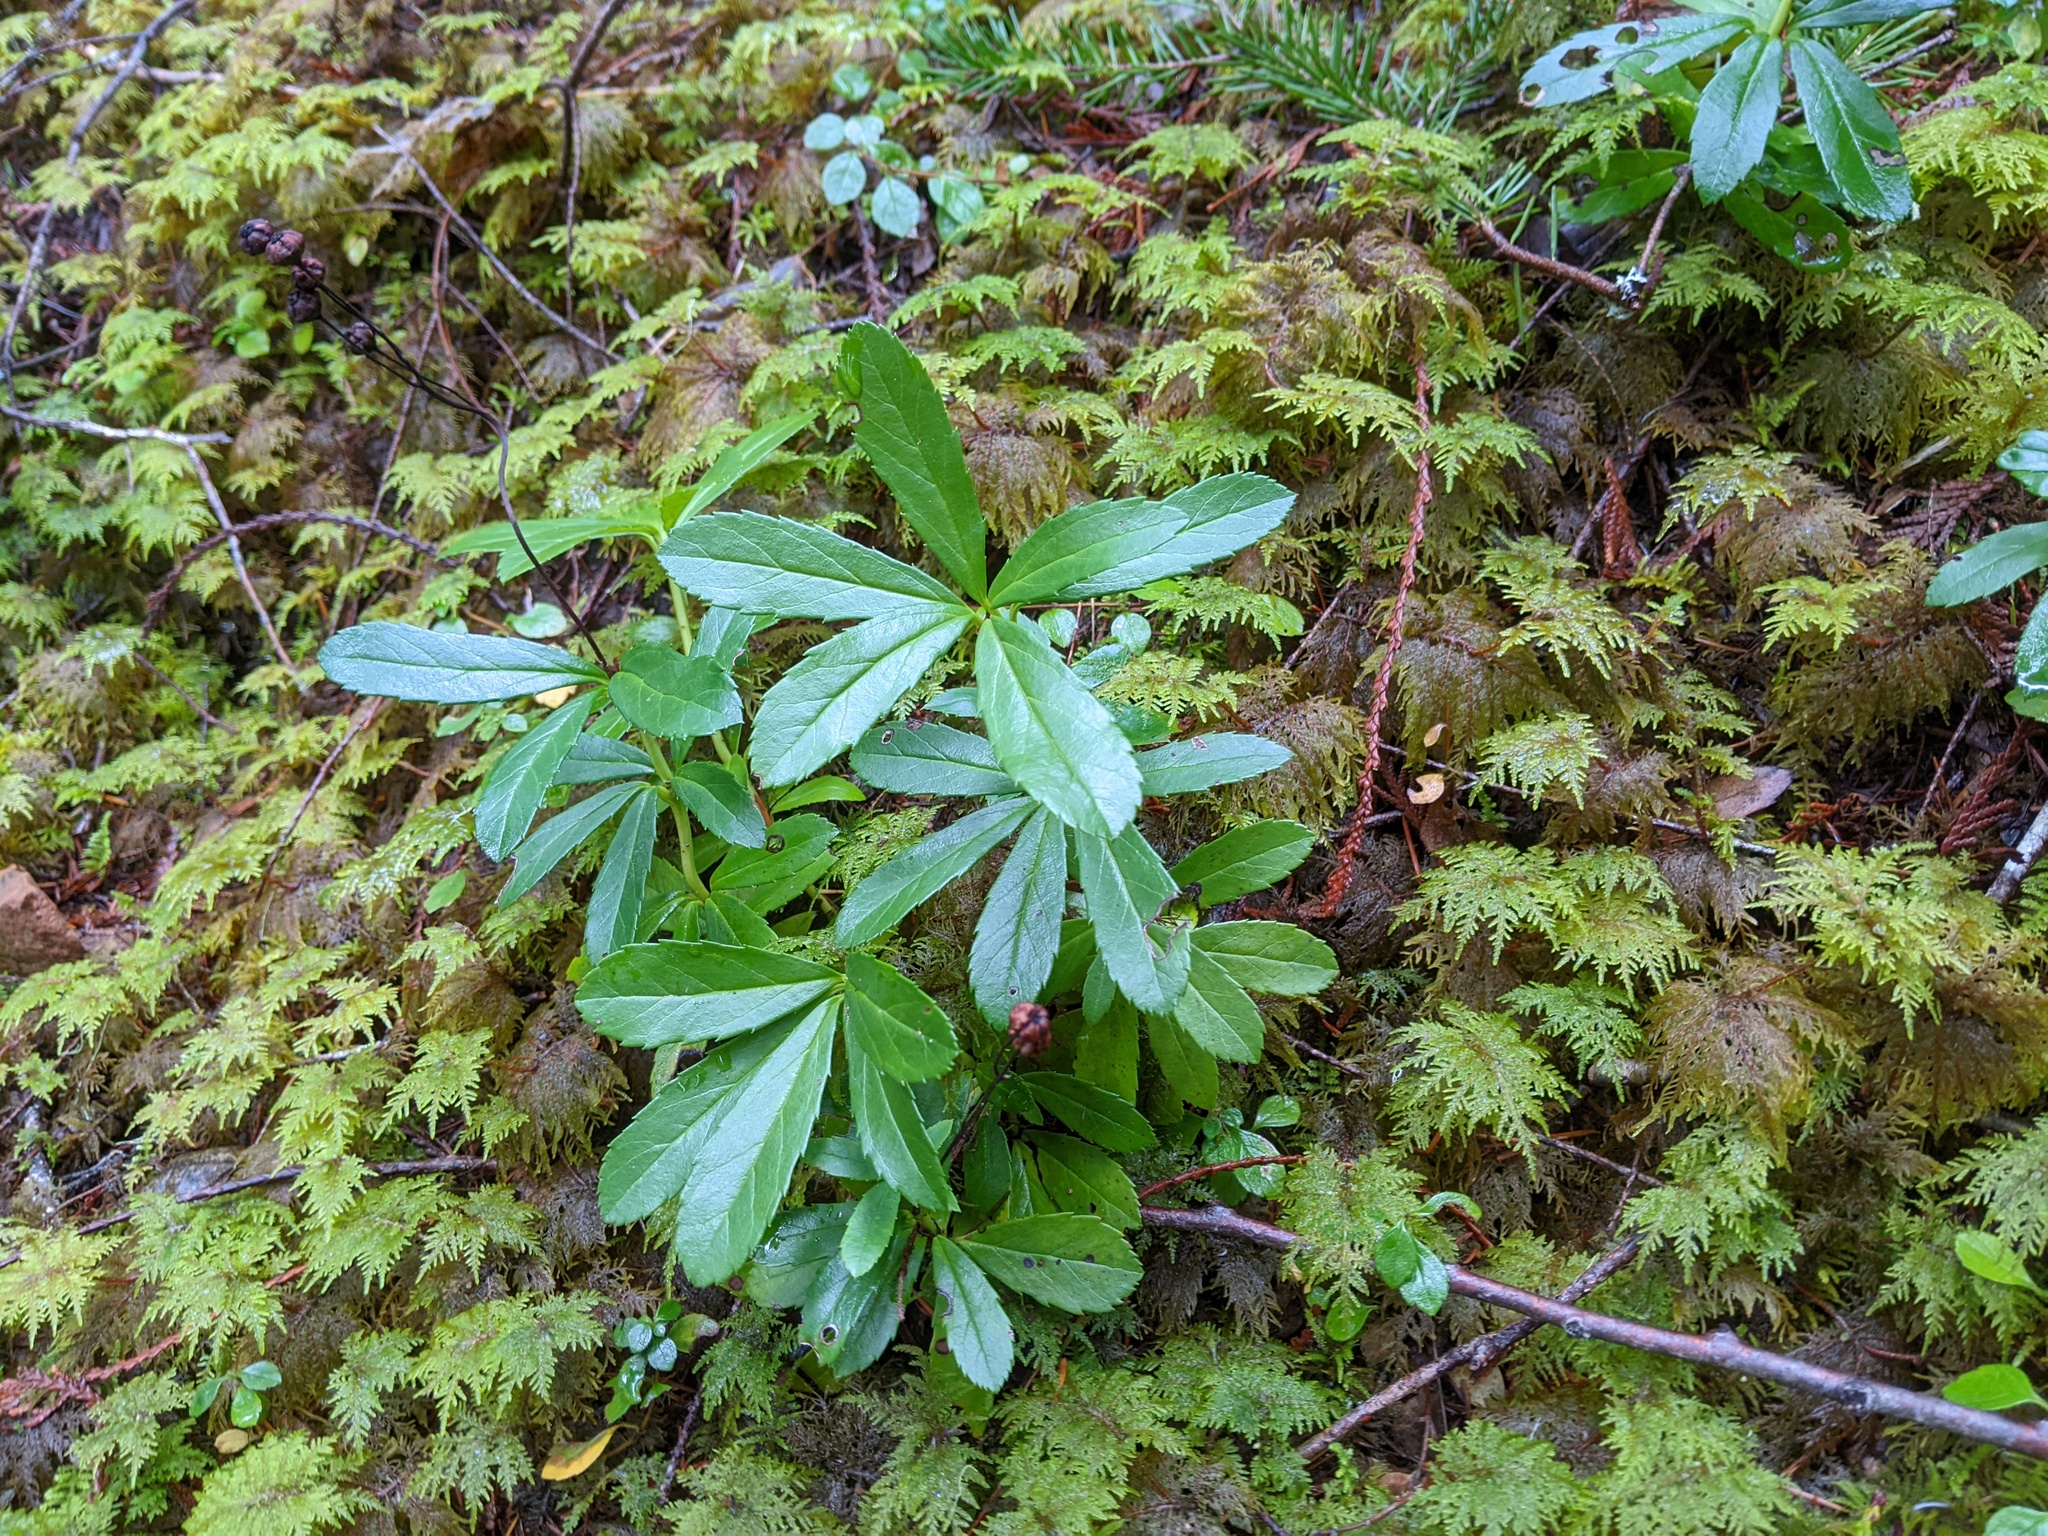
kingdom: Plantae
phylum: Tracheophyta
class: Magnoliopsida
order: Ericales
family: Ericaceae
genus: Chimaphila
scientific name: Chimaphila umbellata
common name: Pipsissewa
